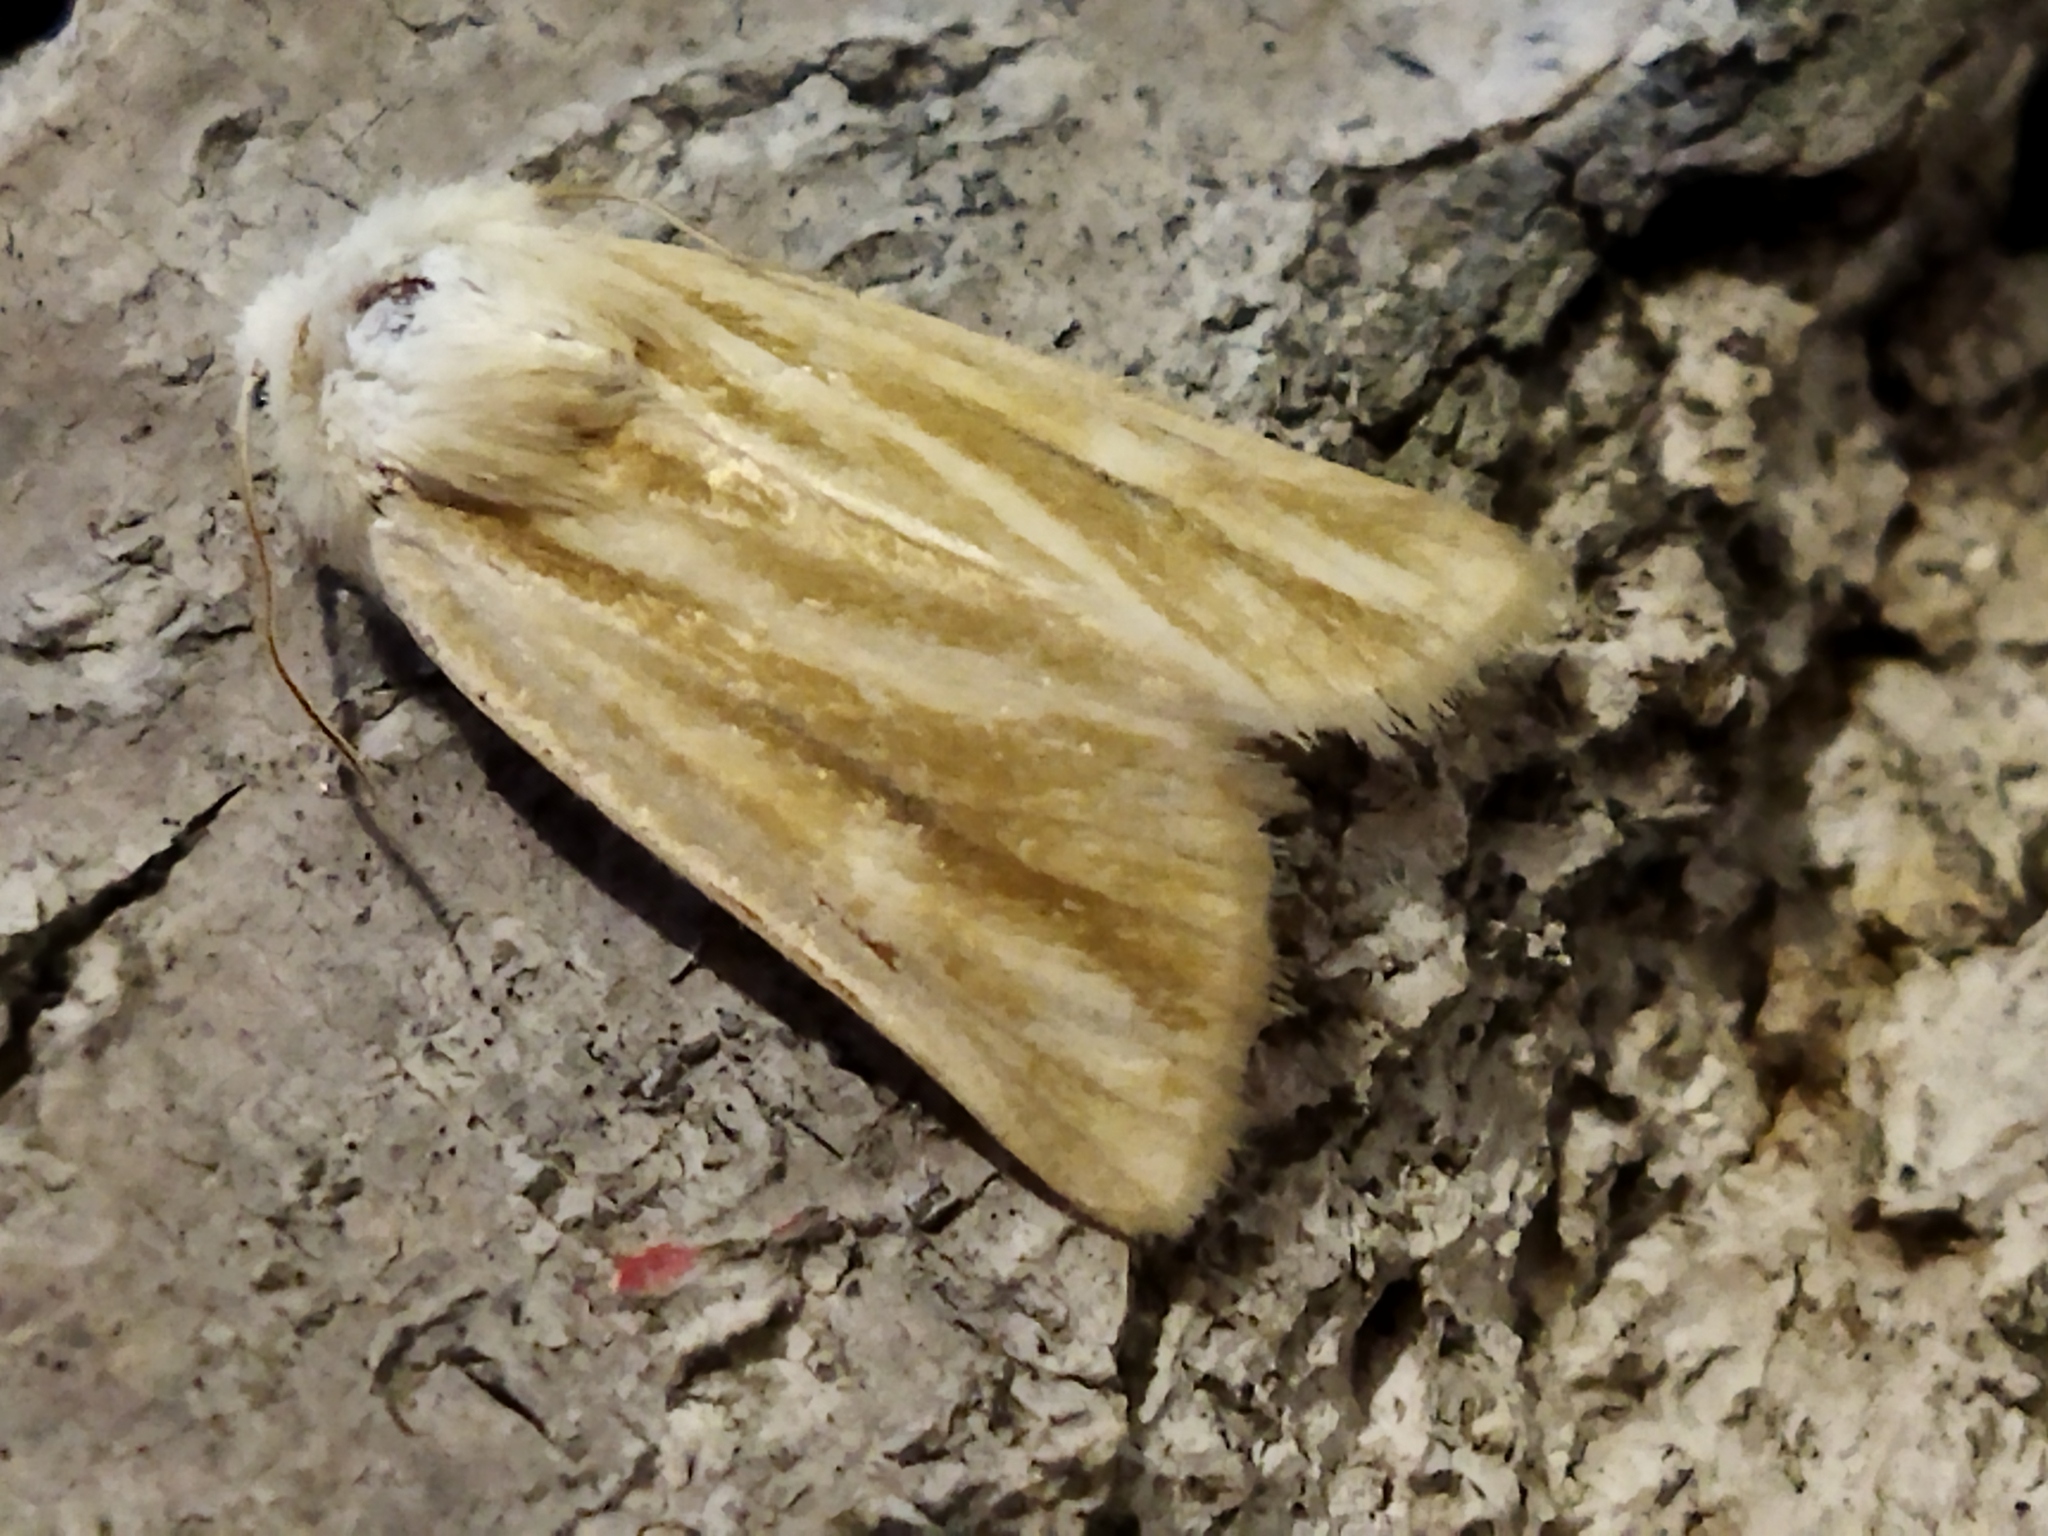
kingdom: Animalia
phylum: Arthropoda
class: Insecta
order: Lepidoptera
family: Noctuidae
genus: Oria
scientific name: Oria musculosa
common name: Brighton wainscot
